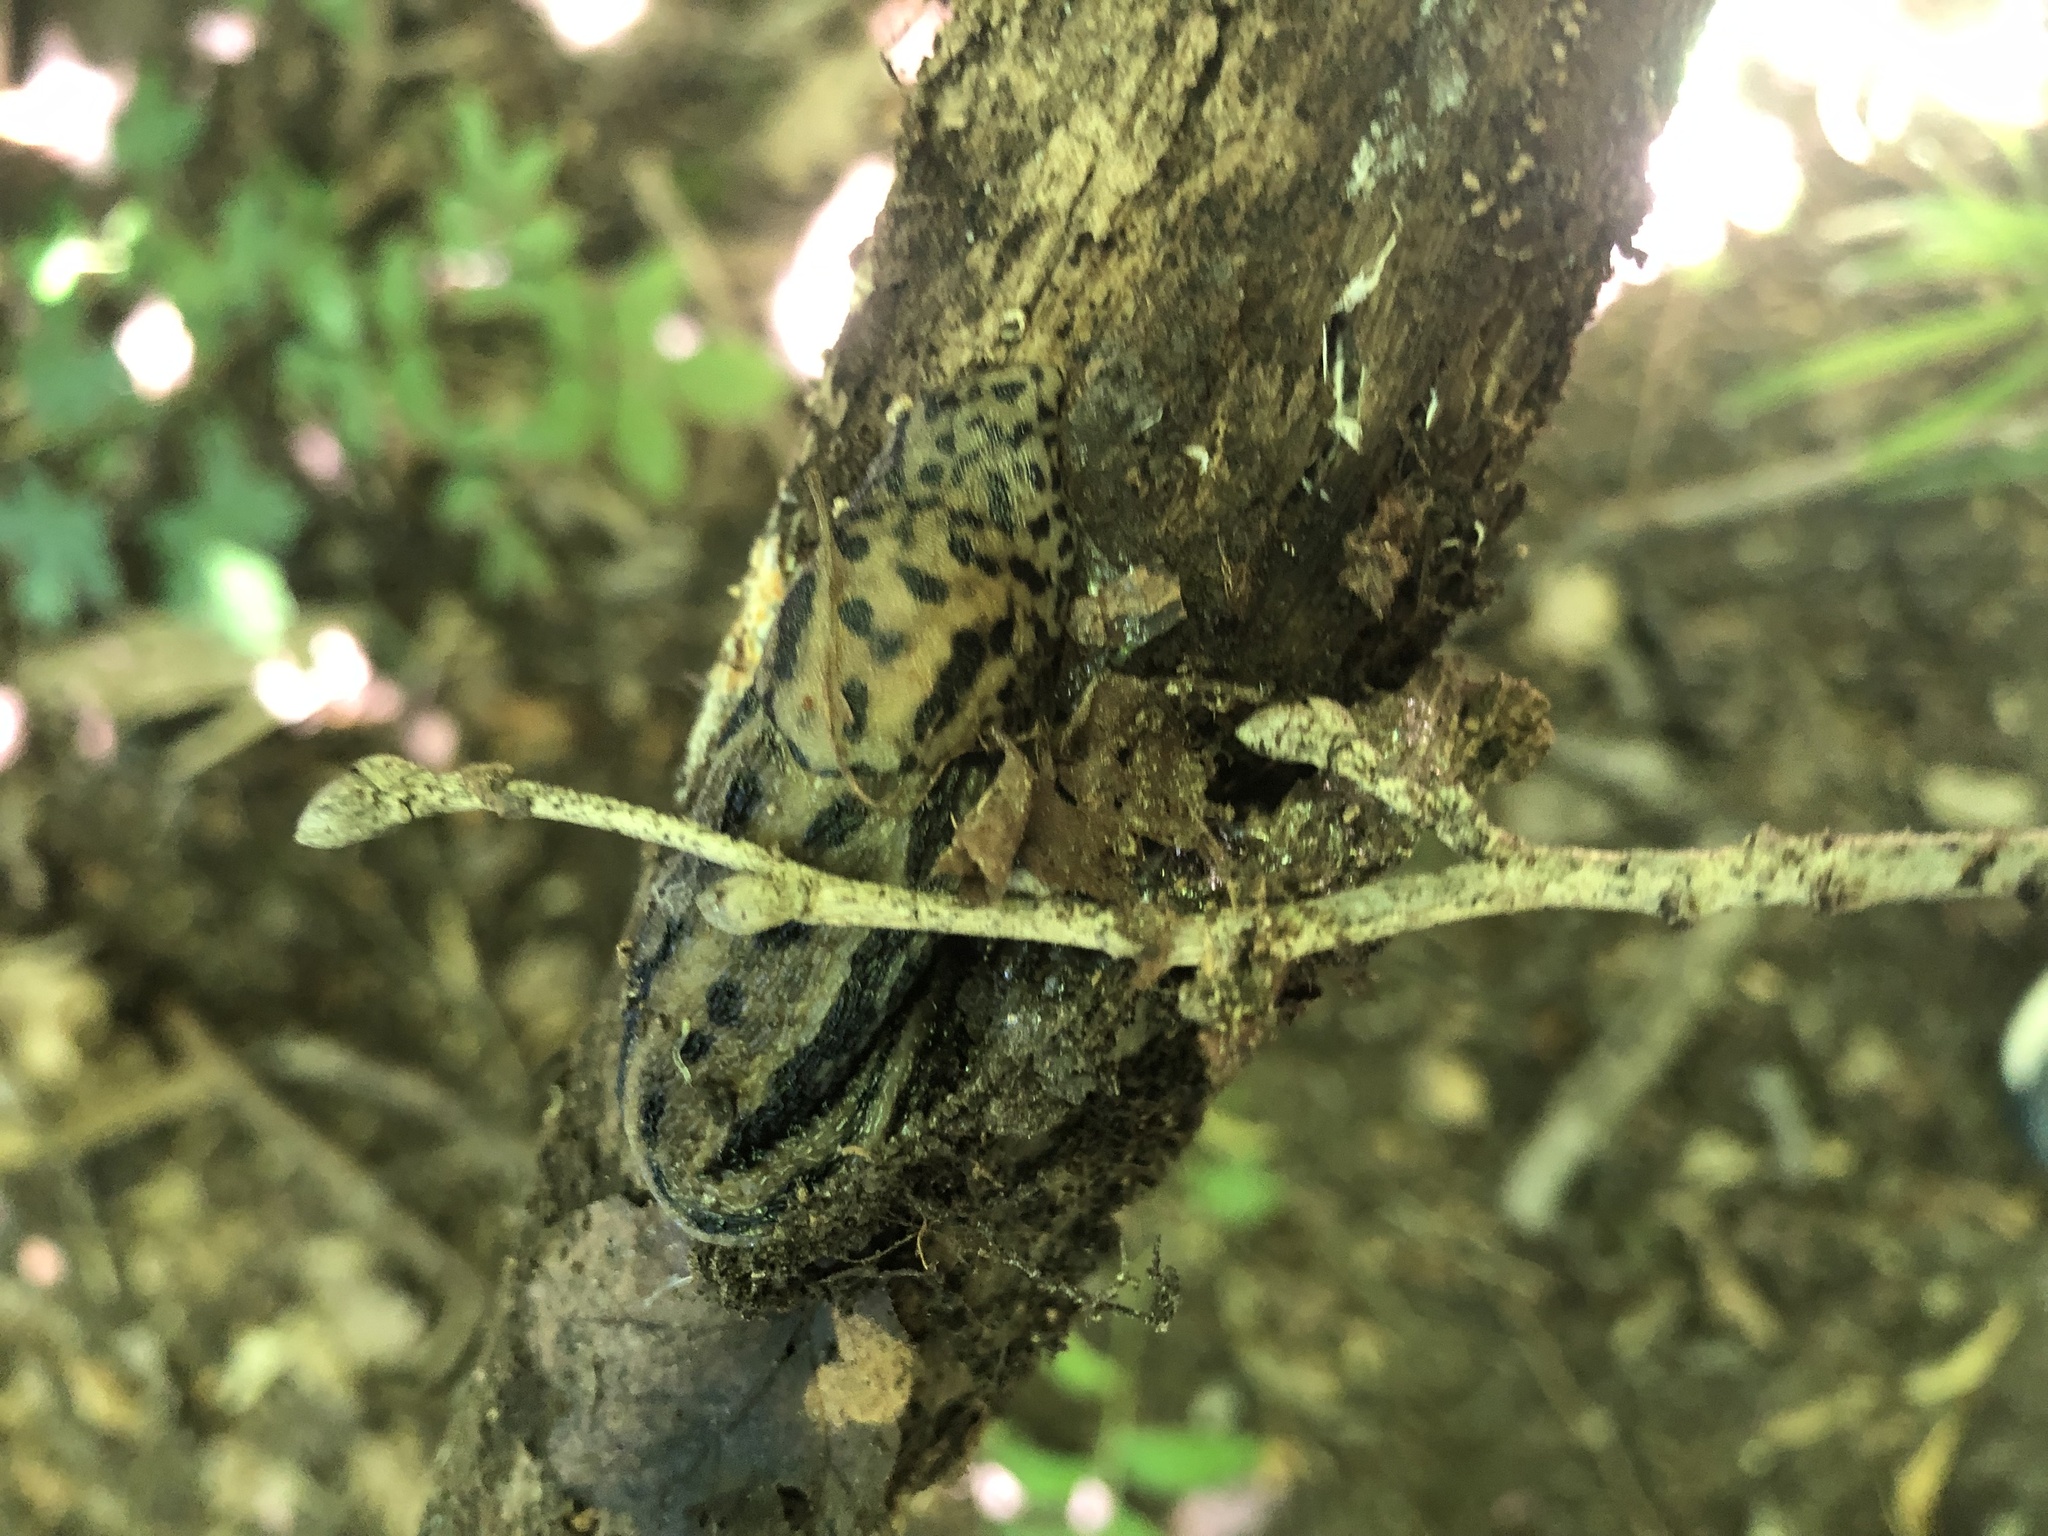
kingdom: Animalia
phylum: Mollusca
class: Gastropoda
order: Stylommatophora
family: Limacidae
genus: Limax
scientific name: Limax maximus
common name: Great grey slug
